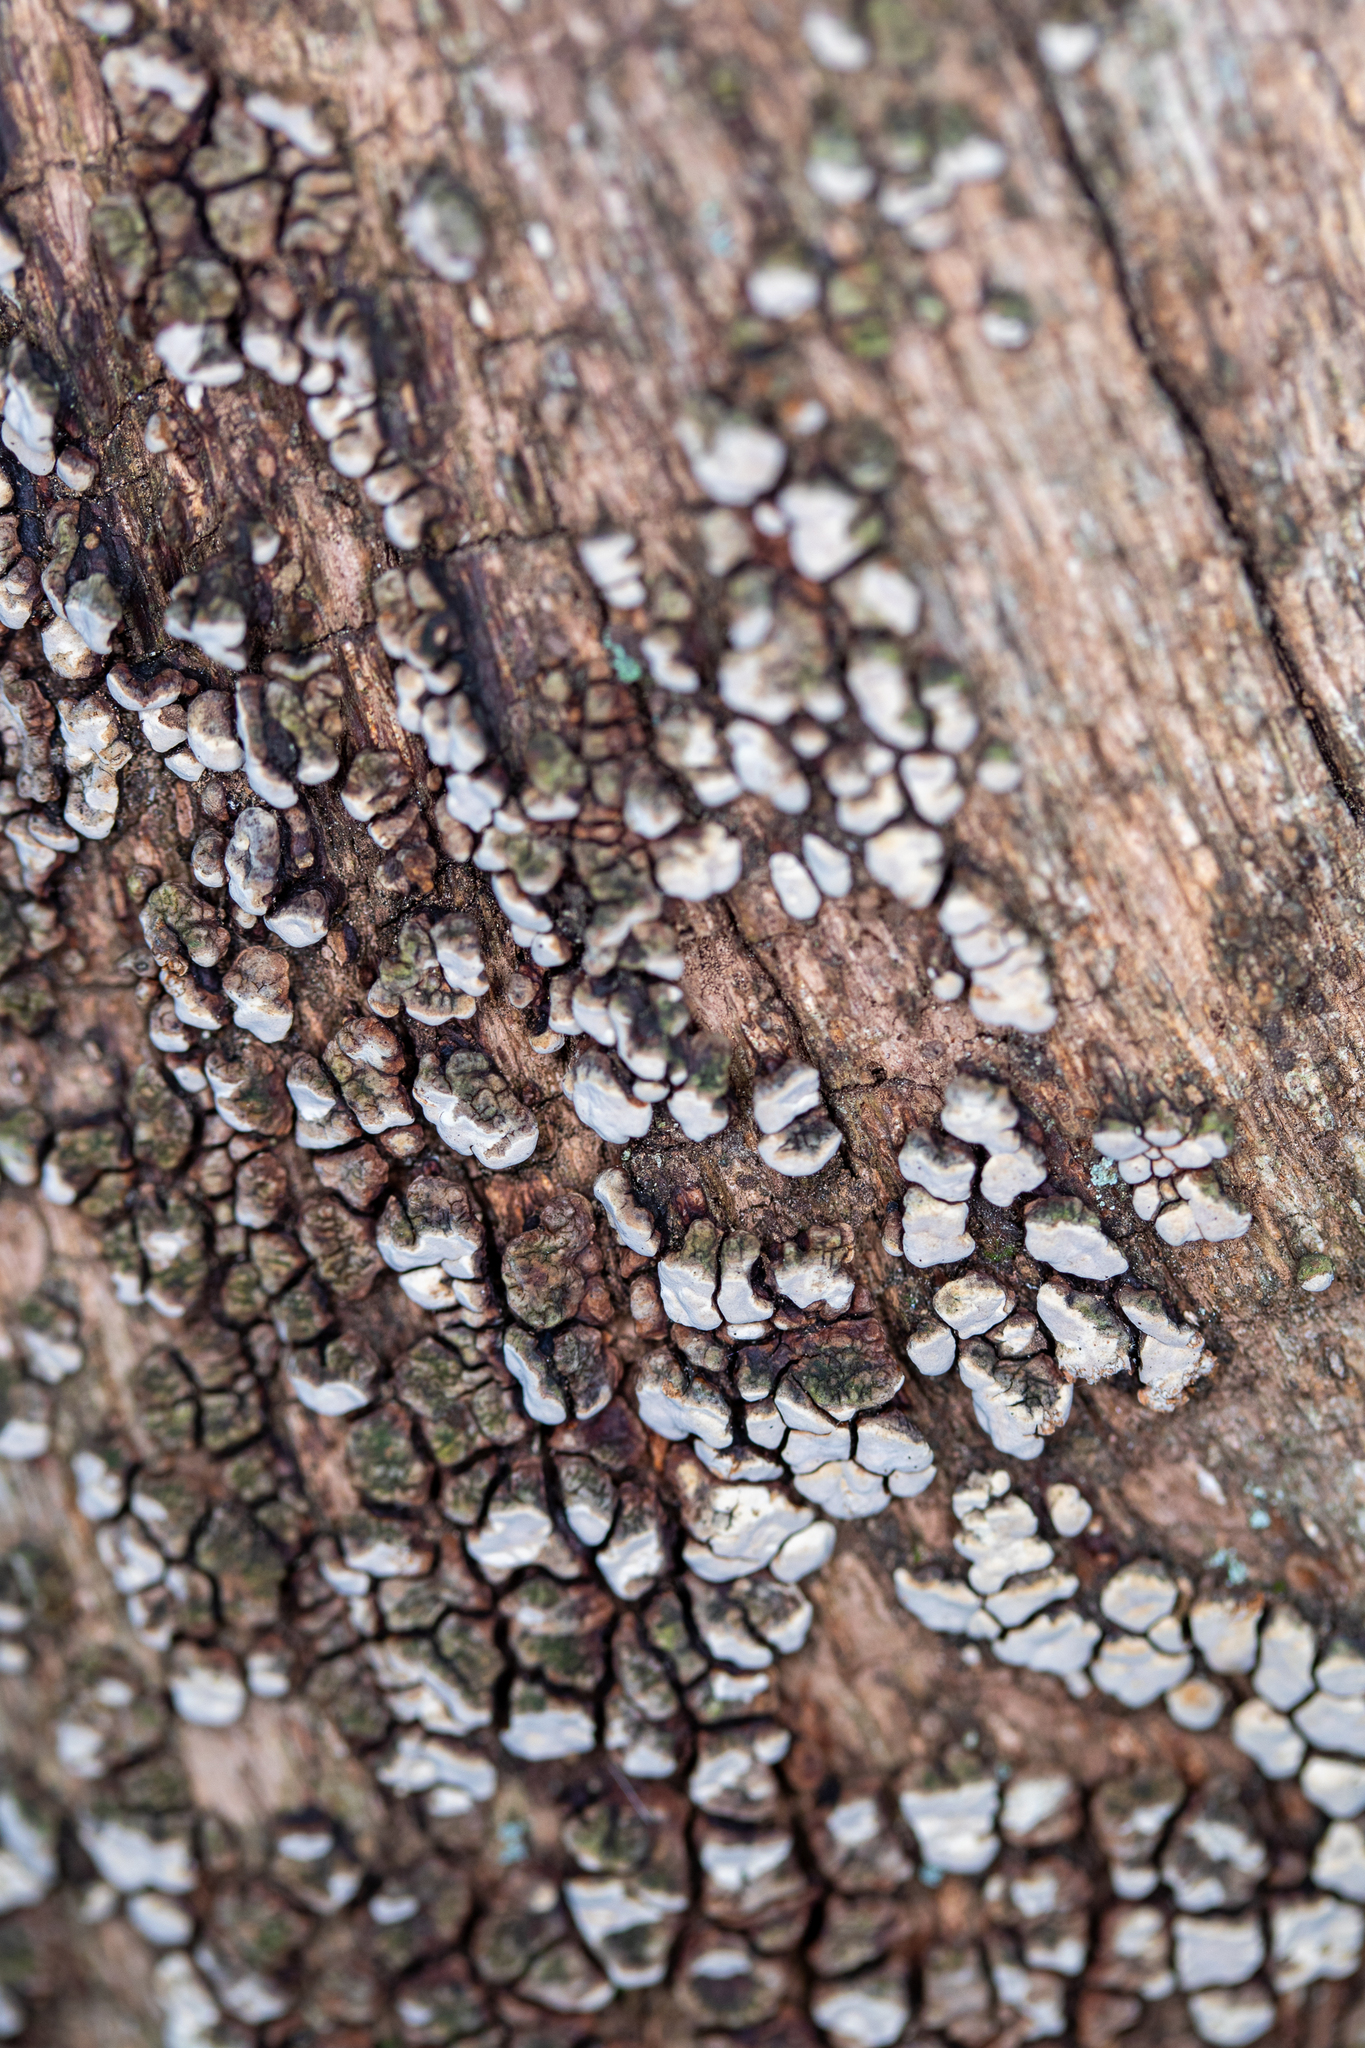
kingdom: Fungi
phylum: Basidiomycota
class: Agaricomycetes
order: Russulales
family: Stereaceae
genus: Xylobolus
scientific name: Xylobolus frustulatus
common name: Ceramic parchment
